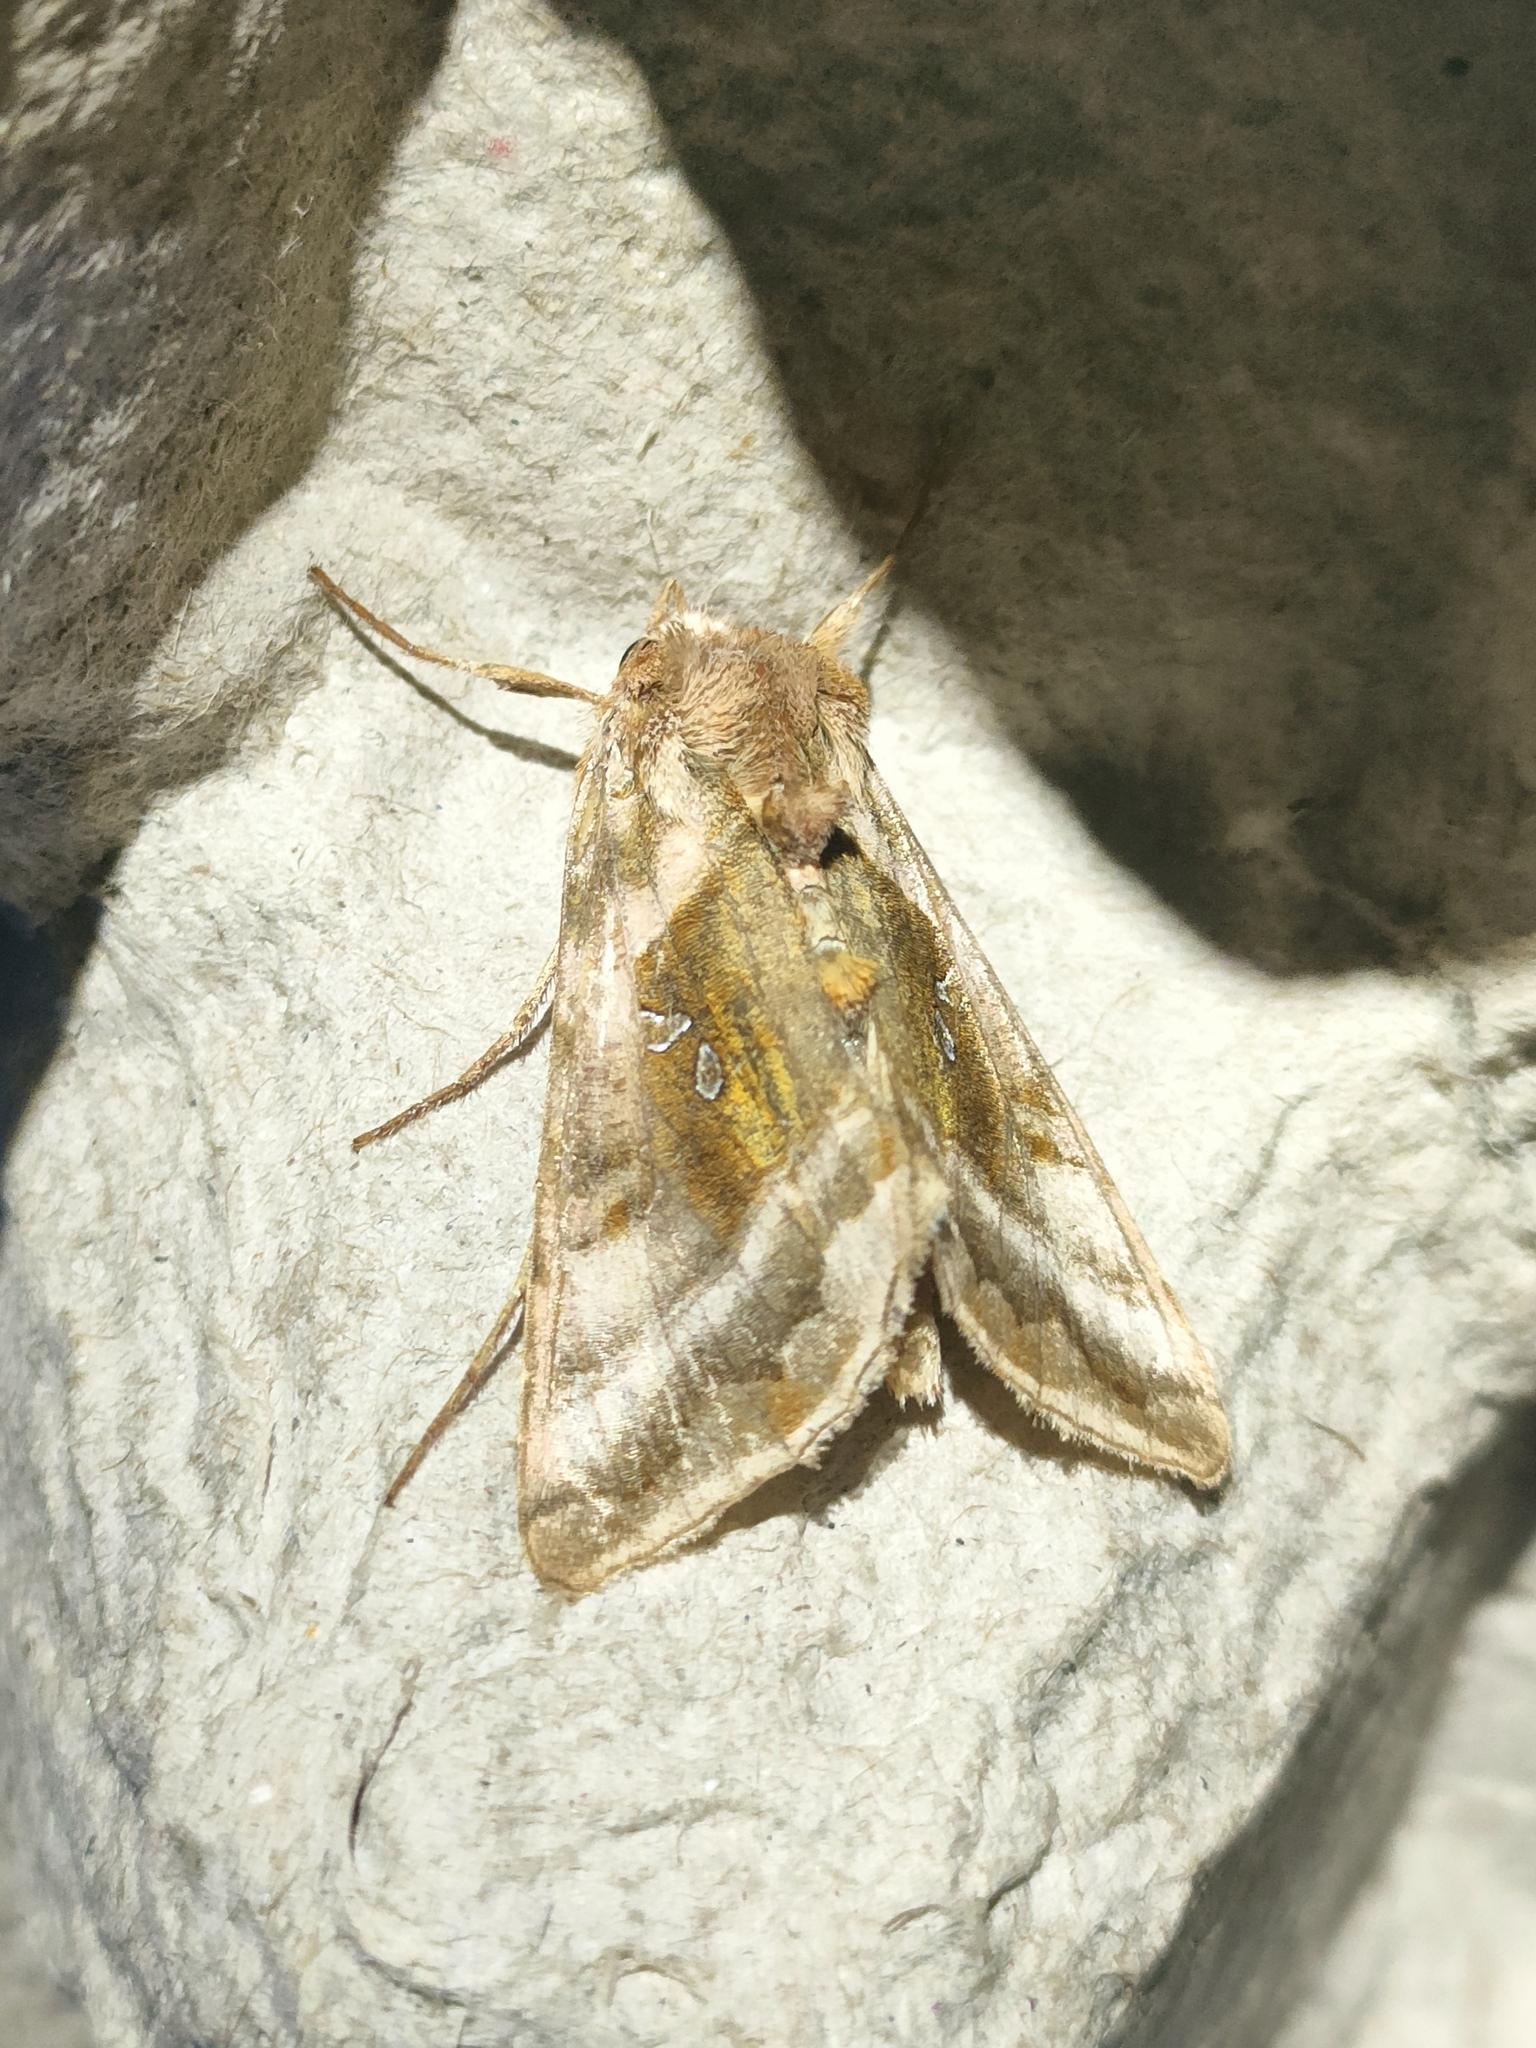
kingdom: Animalia
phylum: Arthropoda
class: Insecta
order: Lepidoptera
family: Noctuidae
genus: Autographa
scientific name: Autographa jota
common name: Plain golden y
